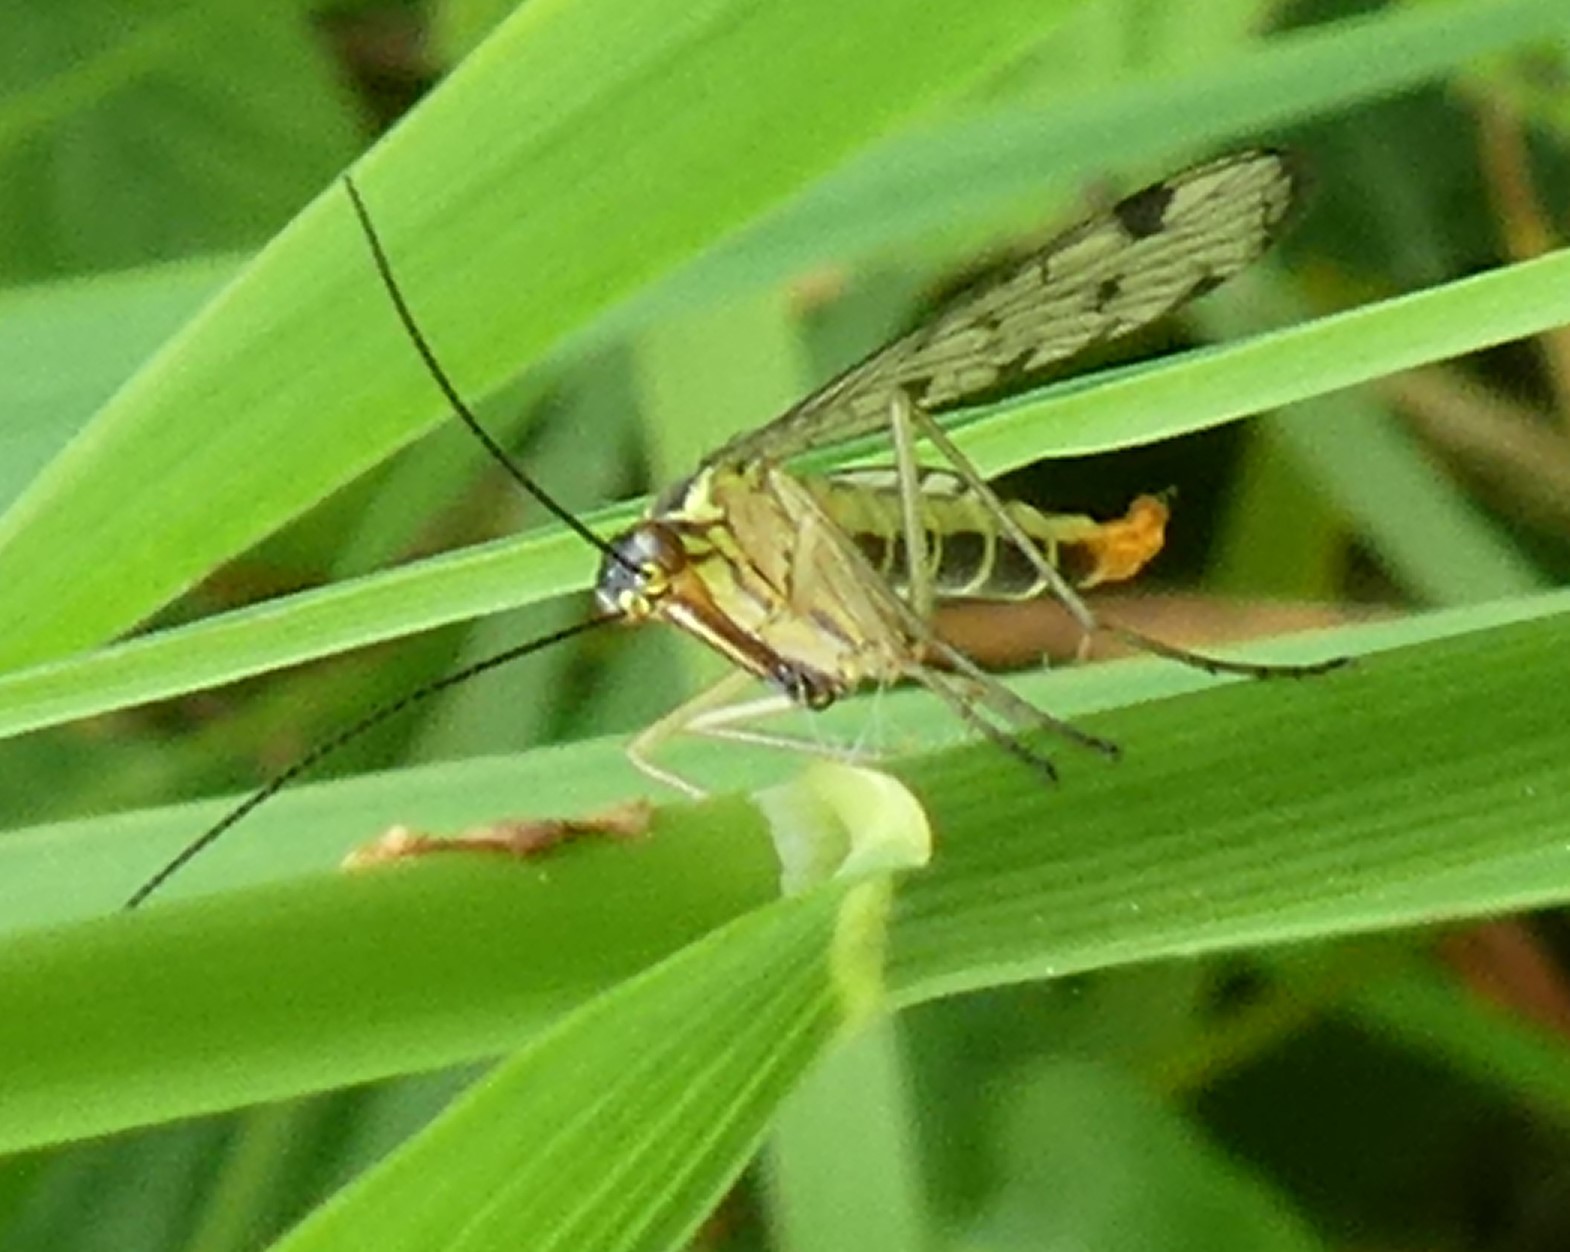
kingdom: Animalia
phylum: Arthropoda
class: Insecta
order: Mecoptera
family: Panorpidae
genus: Panorpa
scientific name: Panorpa
